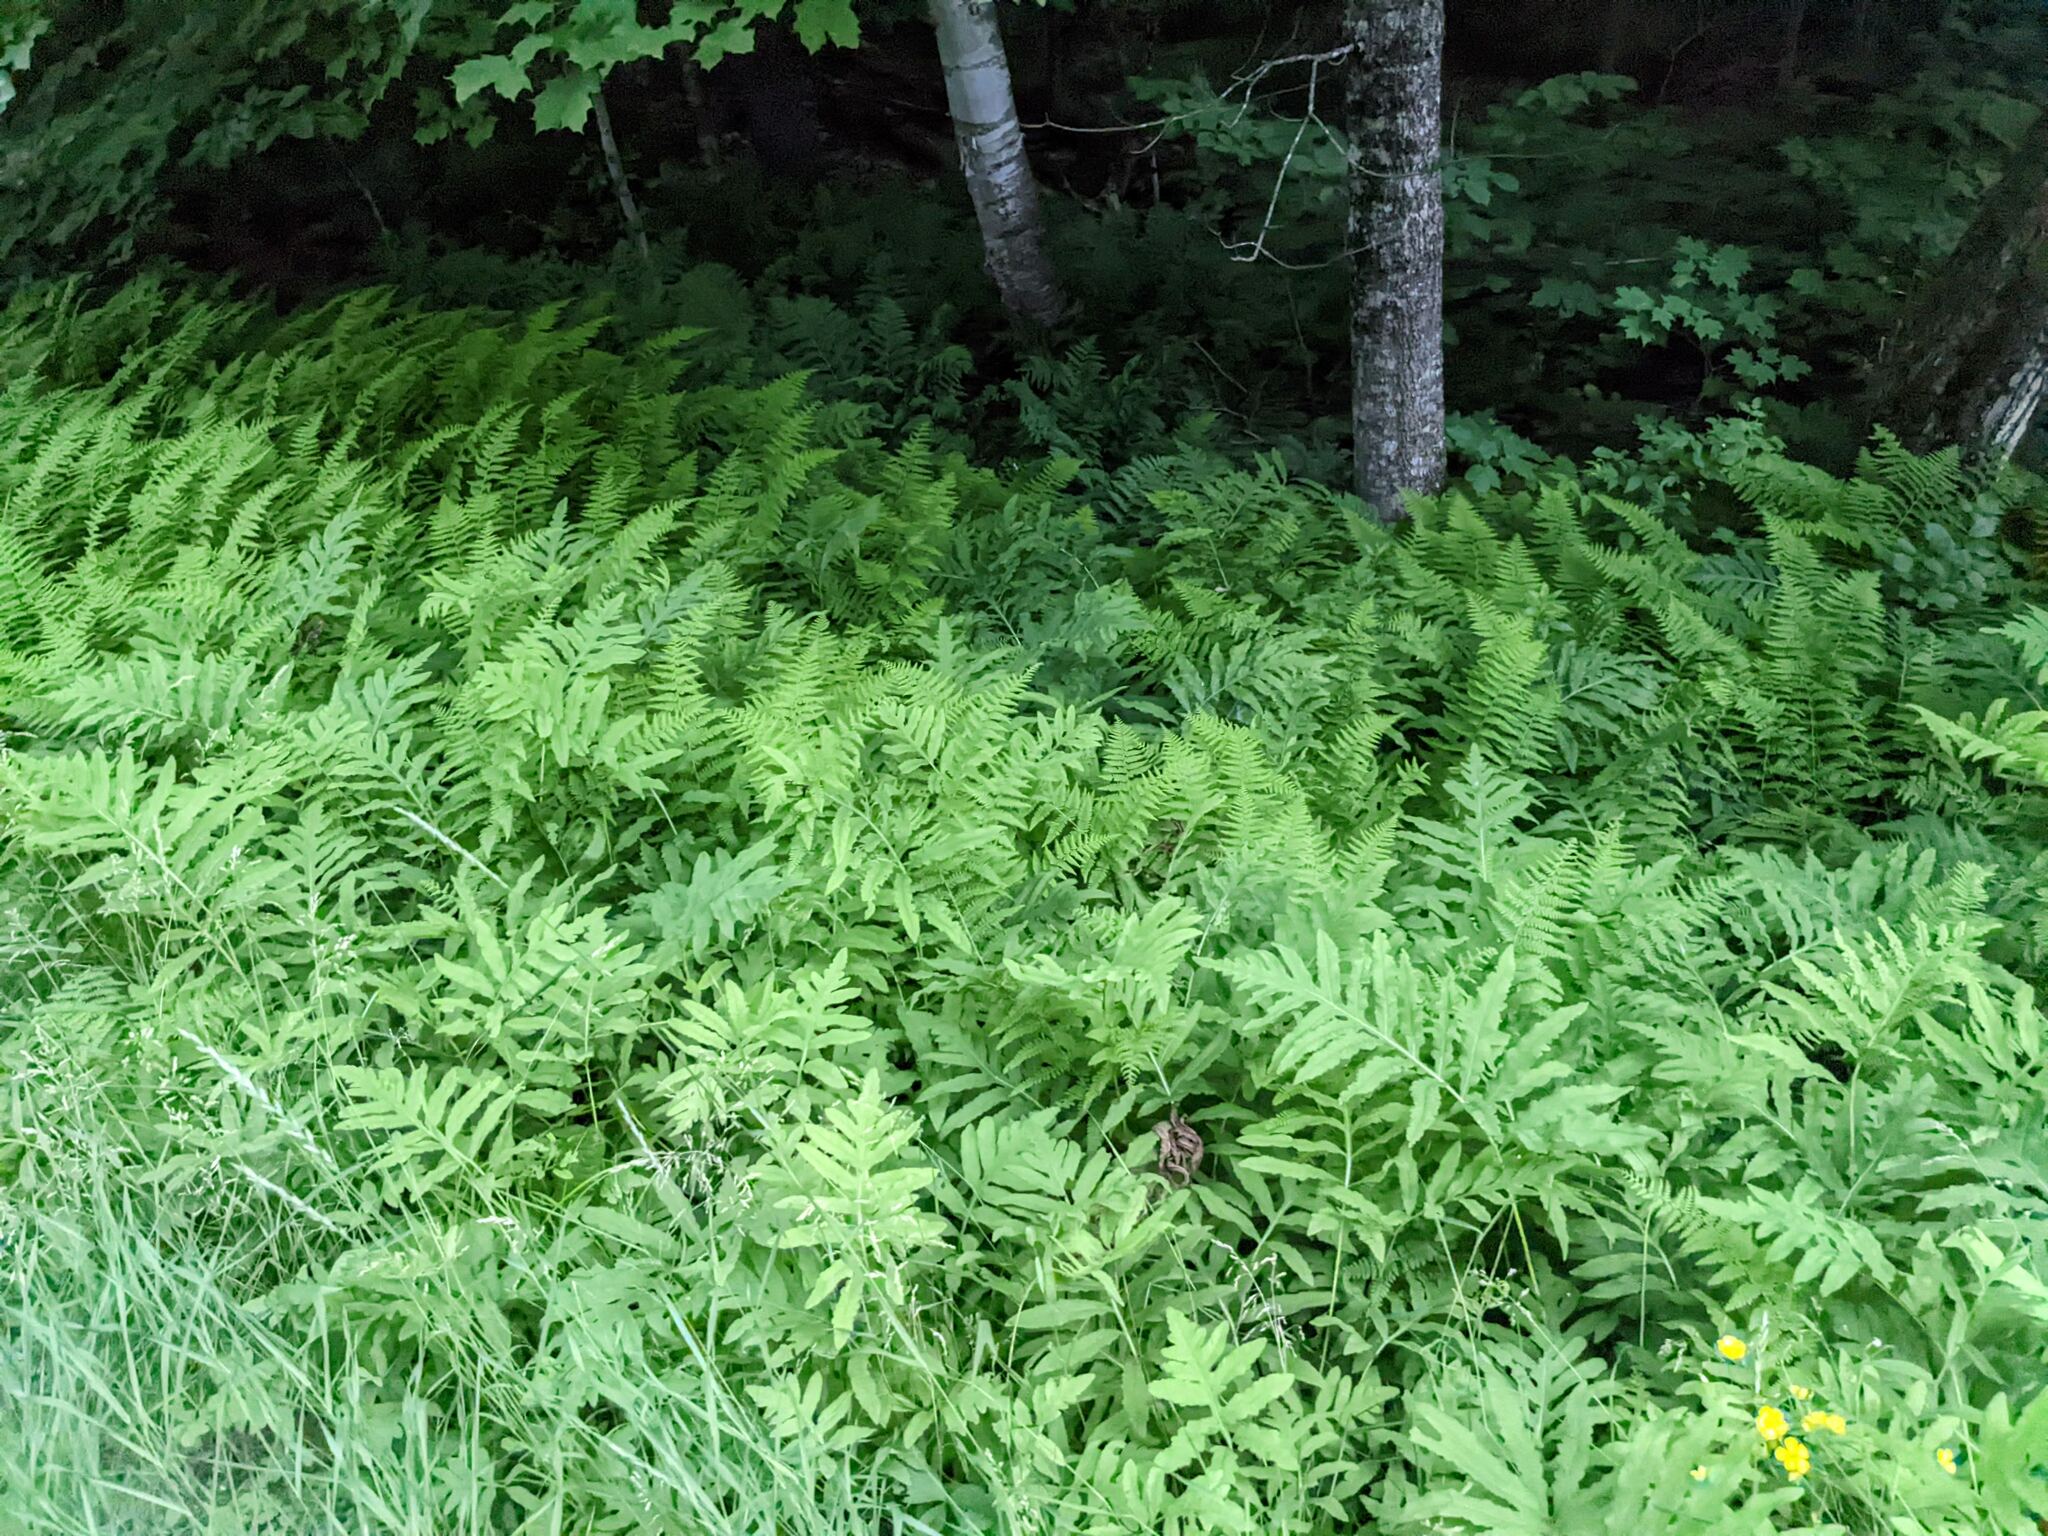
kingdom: Plantae
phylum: Tracheophyta
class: Polypodiopsida
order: Polypodiales
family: Onocleaceae
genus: Onoclea
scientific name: Onoclea sensibilis
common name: Sensitive fern
